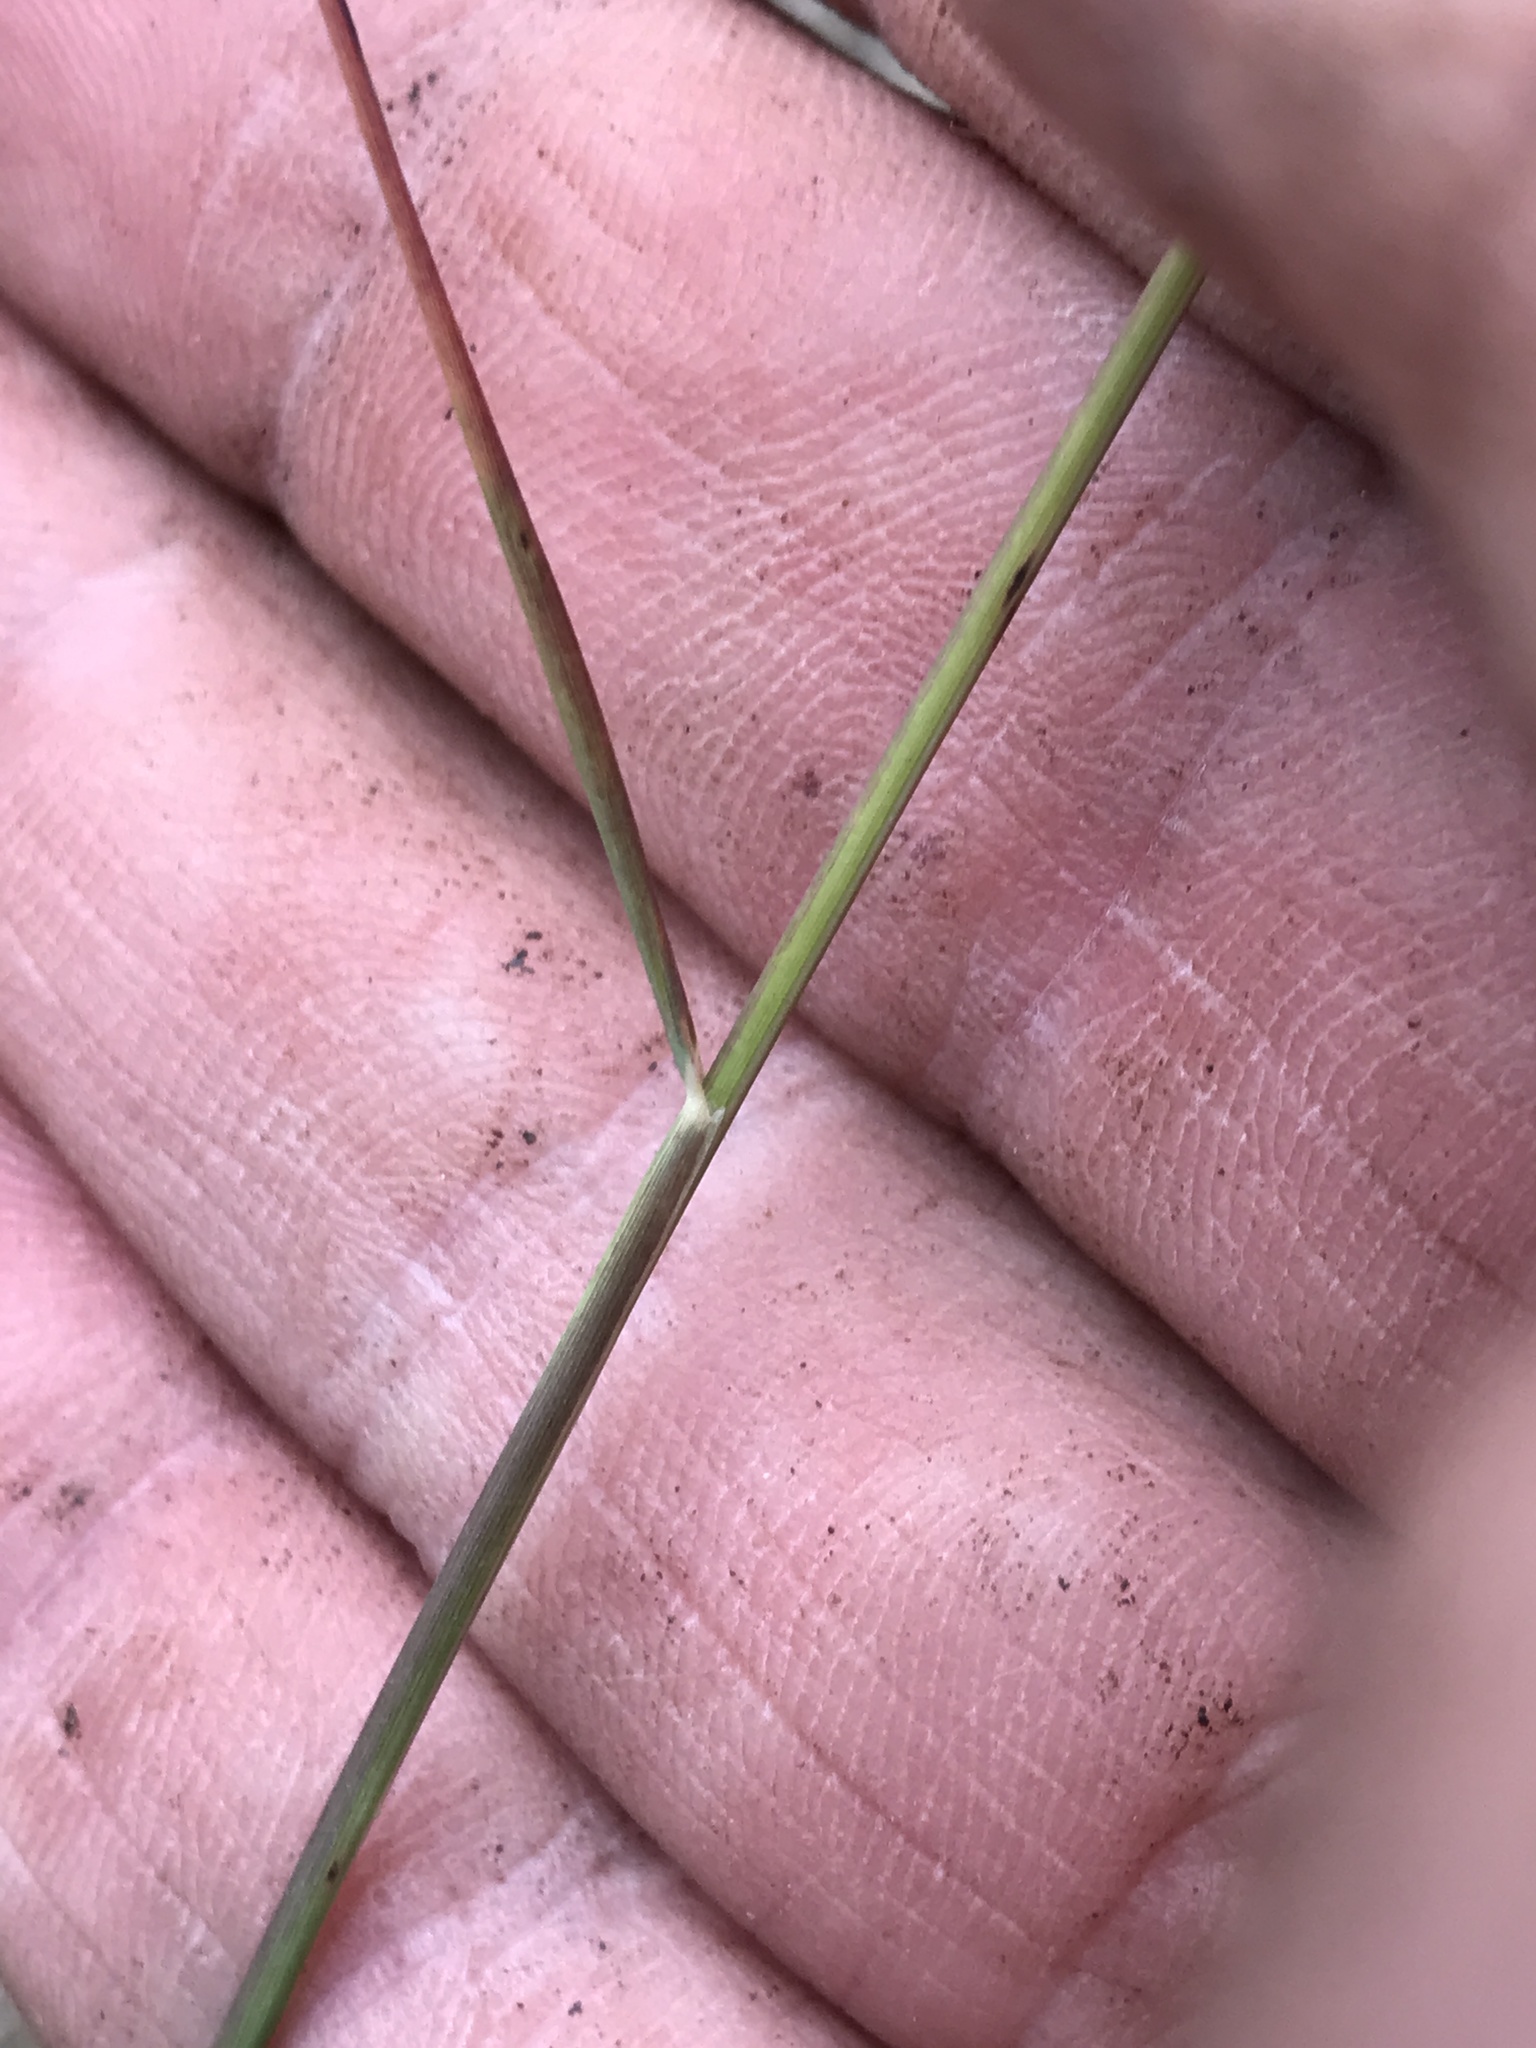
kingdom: Plantae
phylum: Tracheophyta
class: Liliopsida
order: Poales
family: Poaceae
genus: Tridentopsis
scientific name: Tridentopsis mutica
